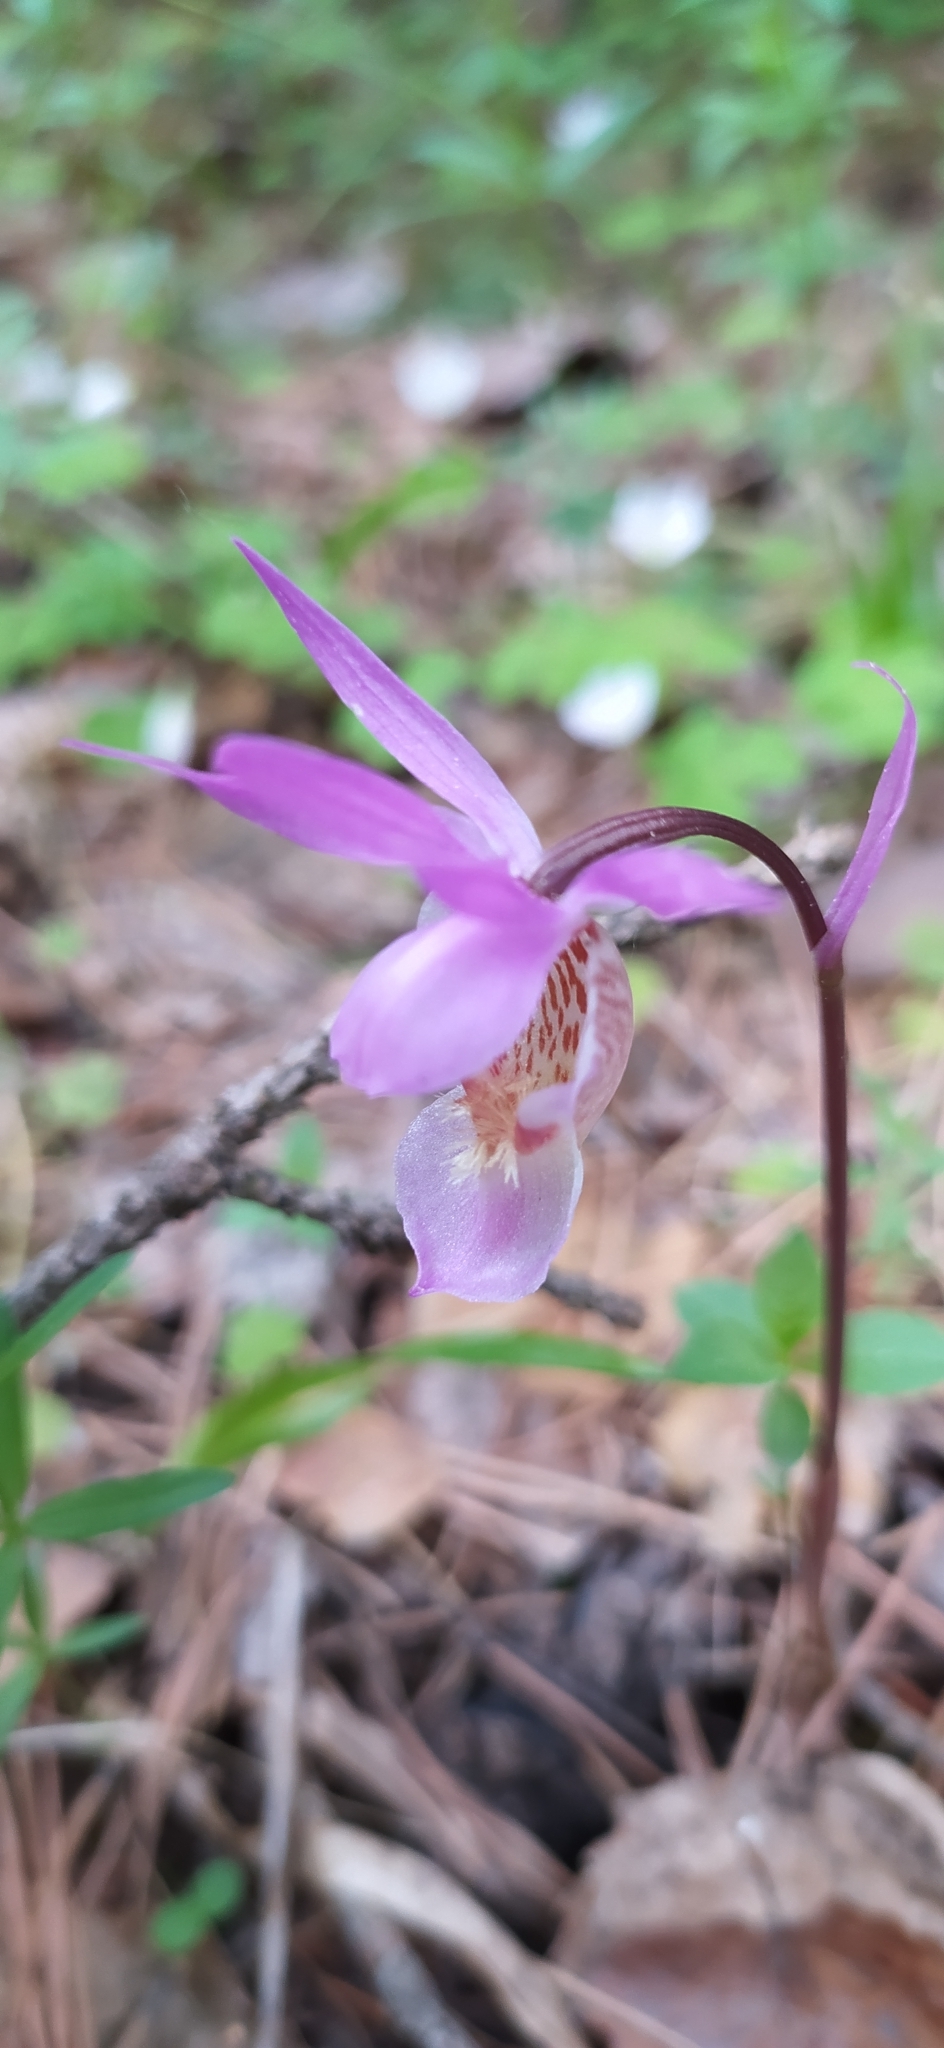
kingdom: Plantae
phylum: Tracheophyta
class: Liliopsida
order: Asparagales
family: Orchidaceae
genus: Calypso
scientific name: Calypso bulbosa
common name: Calypso
